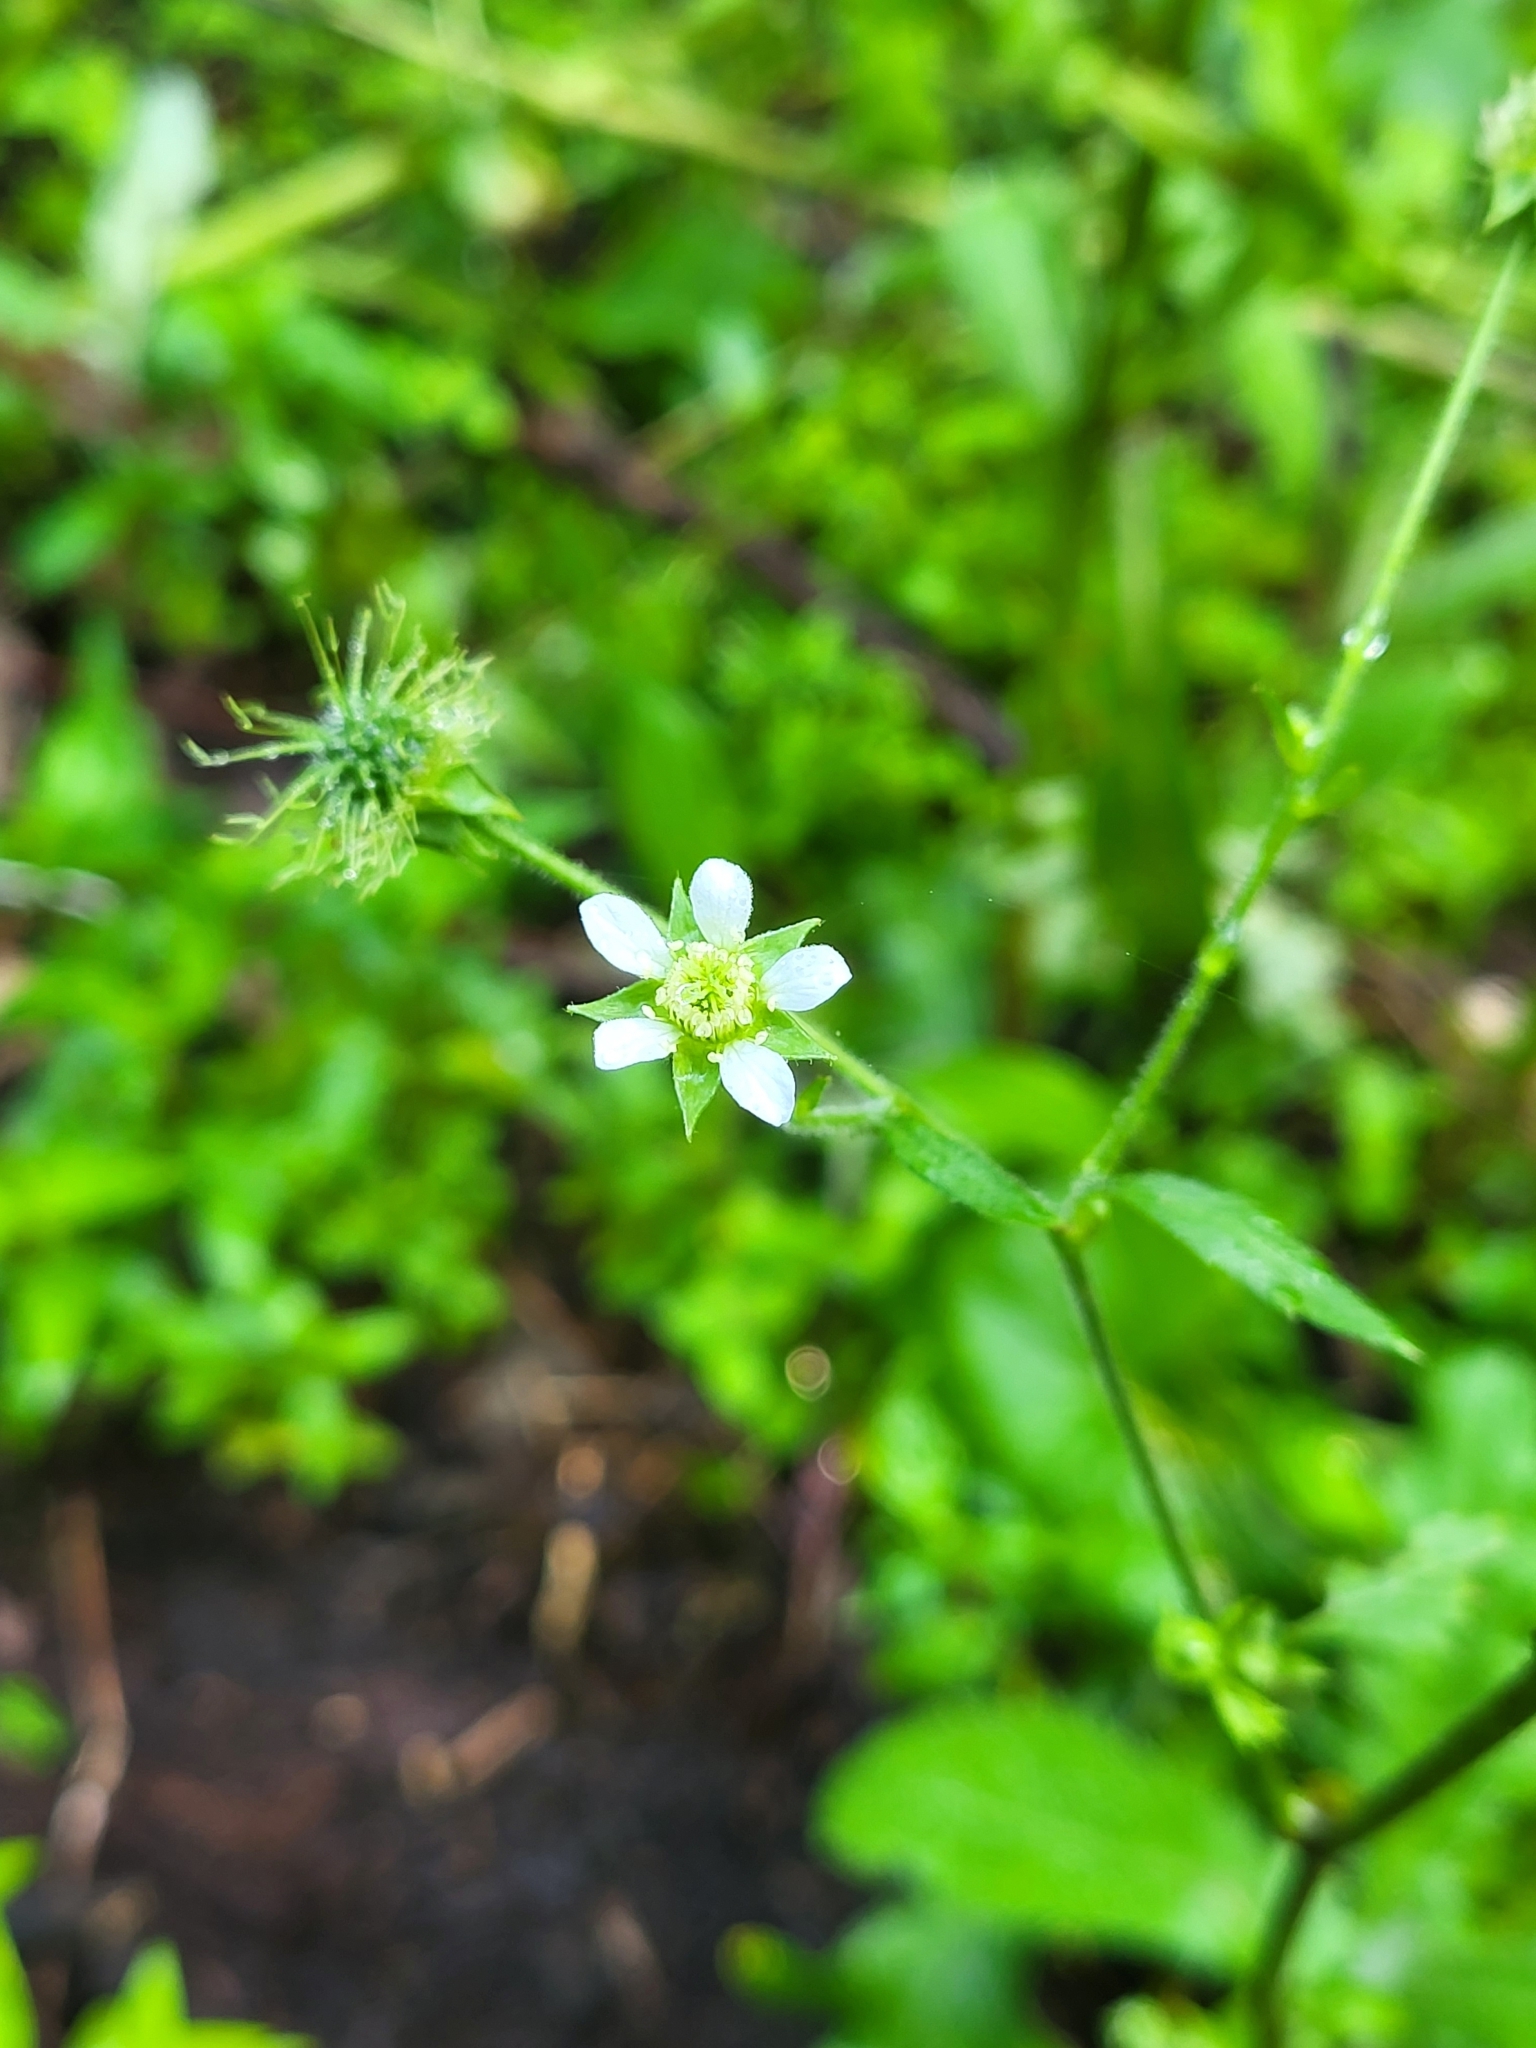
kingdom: Plantae
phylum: Tracheophyta
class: Magnoliopsida
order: Rosales
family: Rosaceae
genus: Geum
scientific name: Geum canadense
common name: White avens
